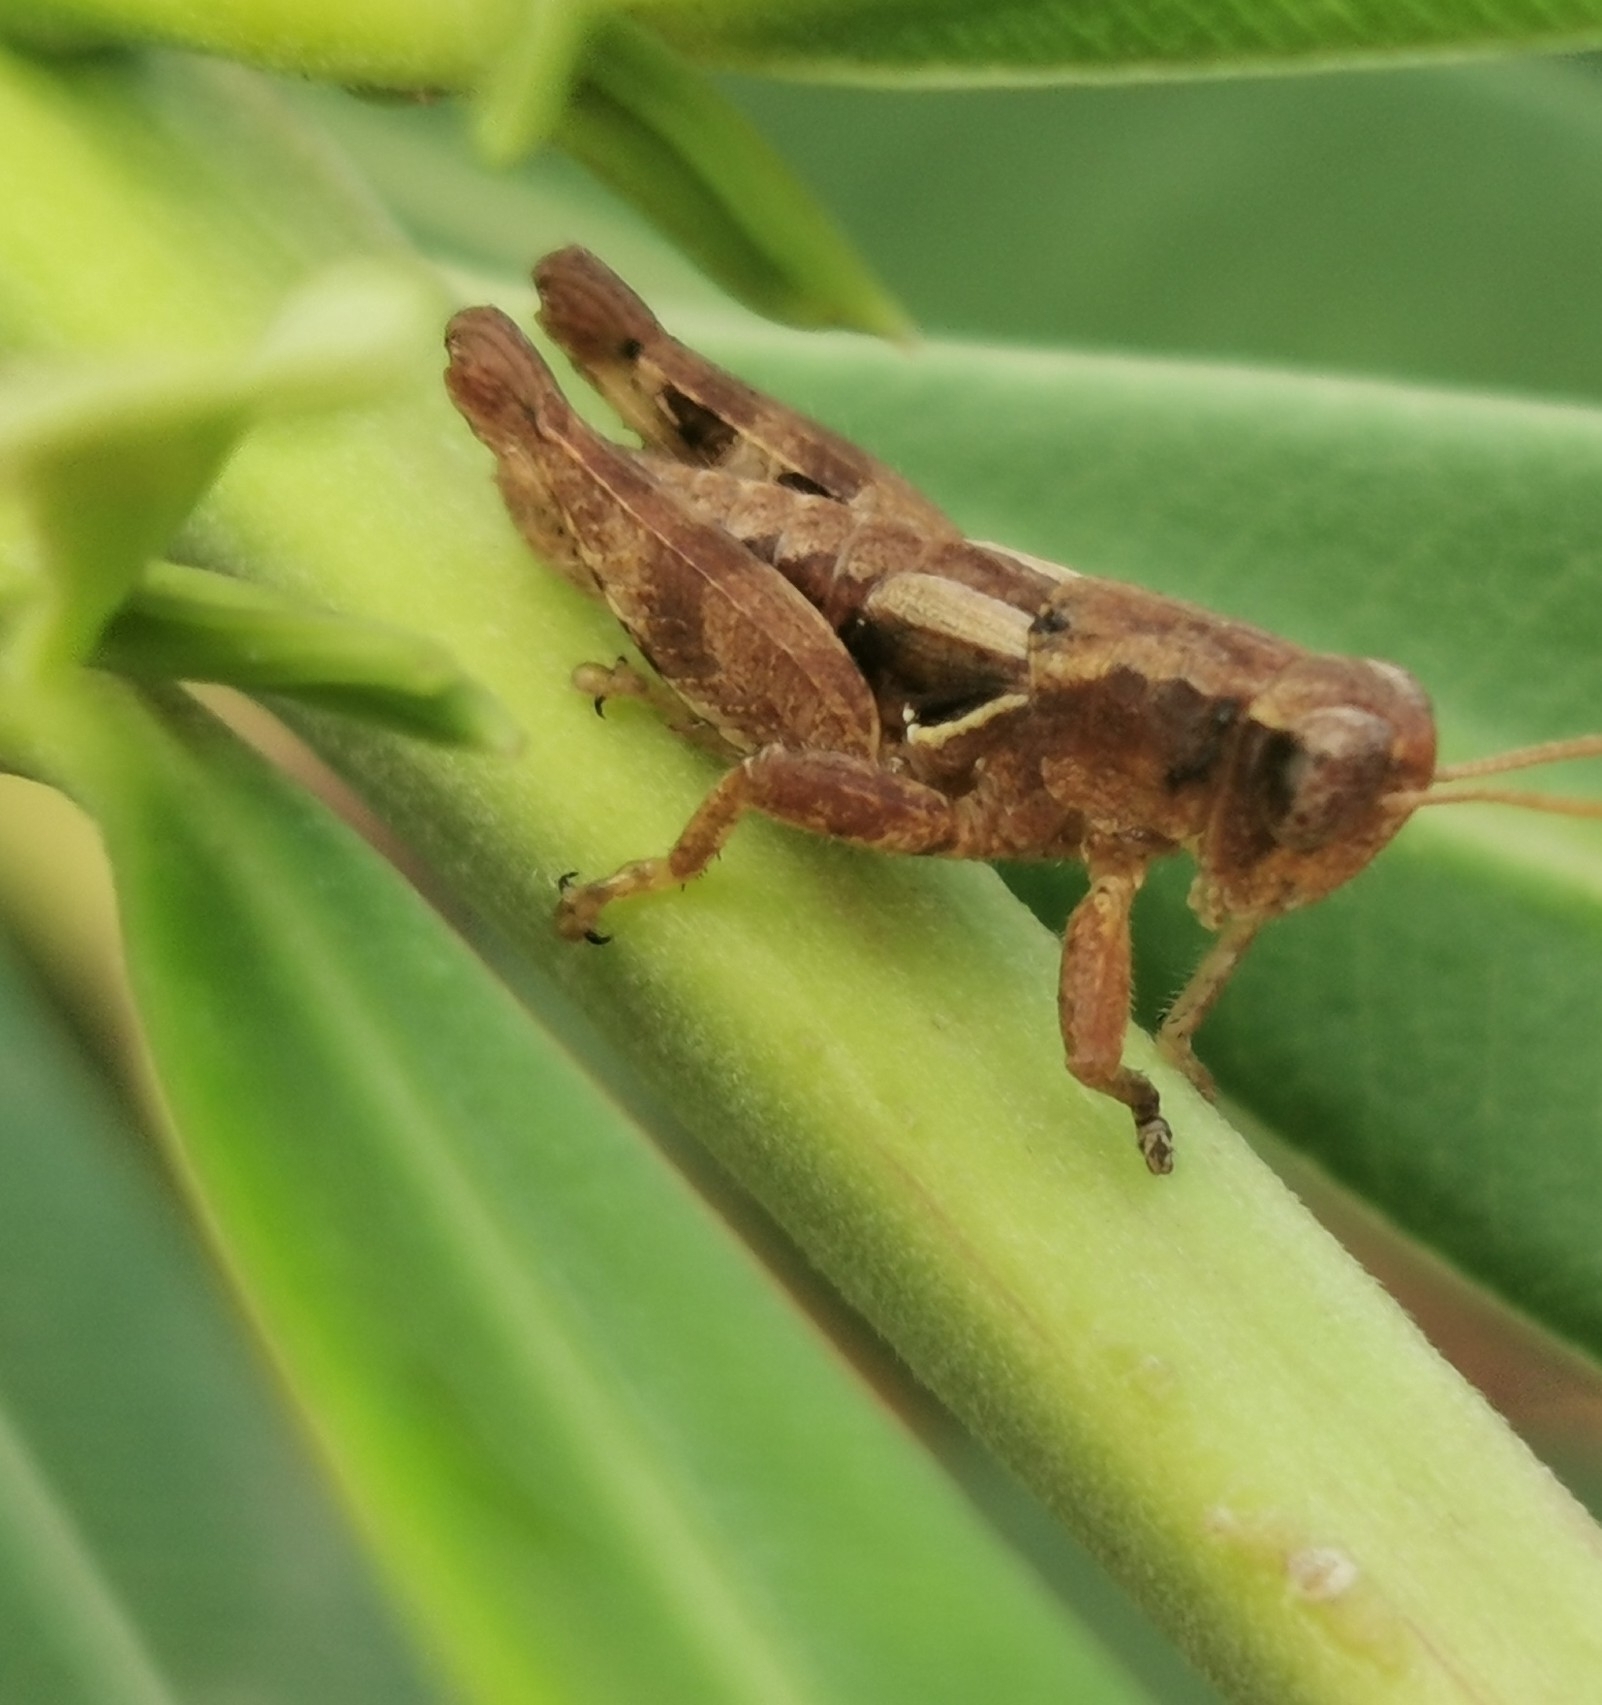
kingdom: Animalia
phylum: Arthropoda
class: Insecta
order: Orthoptera
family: Acrididae
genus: Pezotettix
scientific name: Pezotettix giornae
